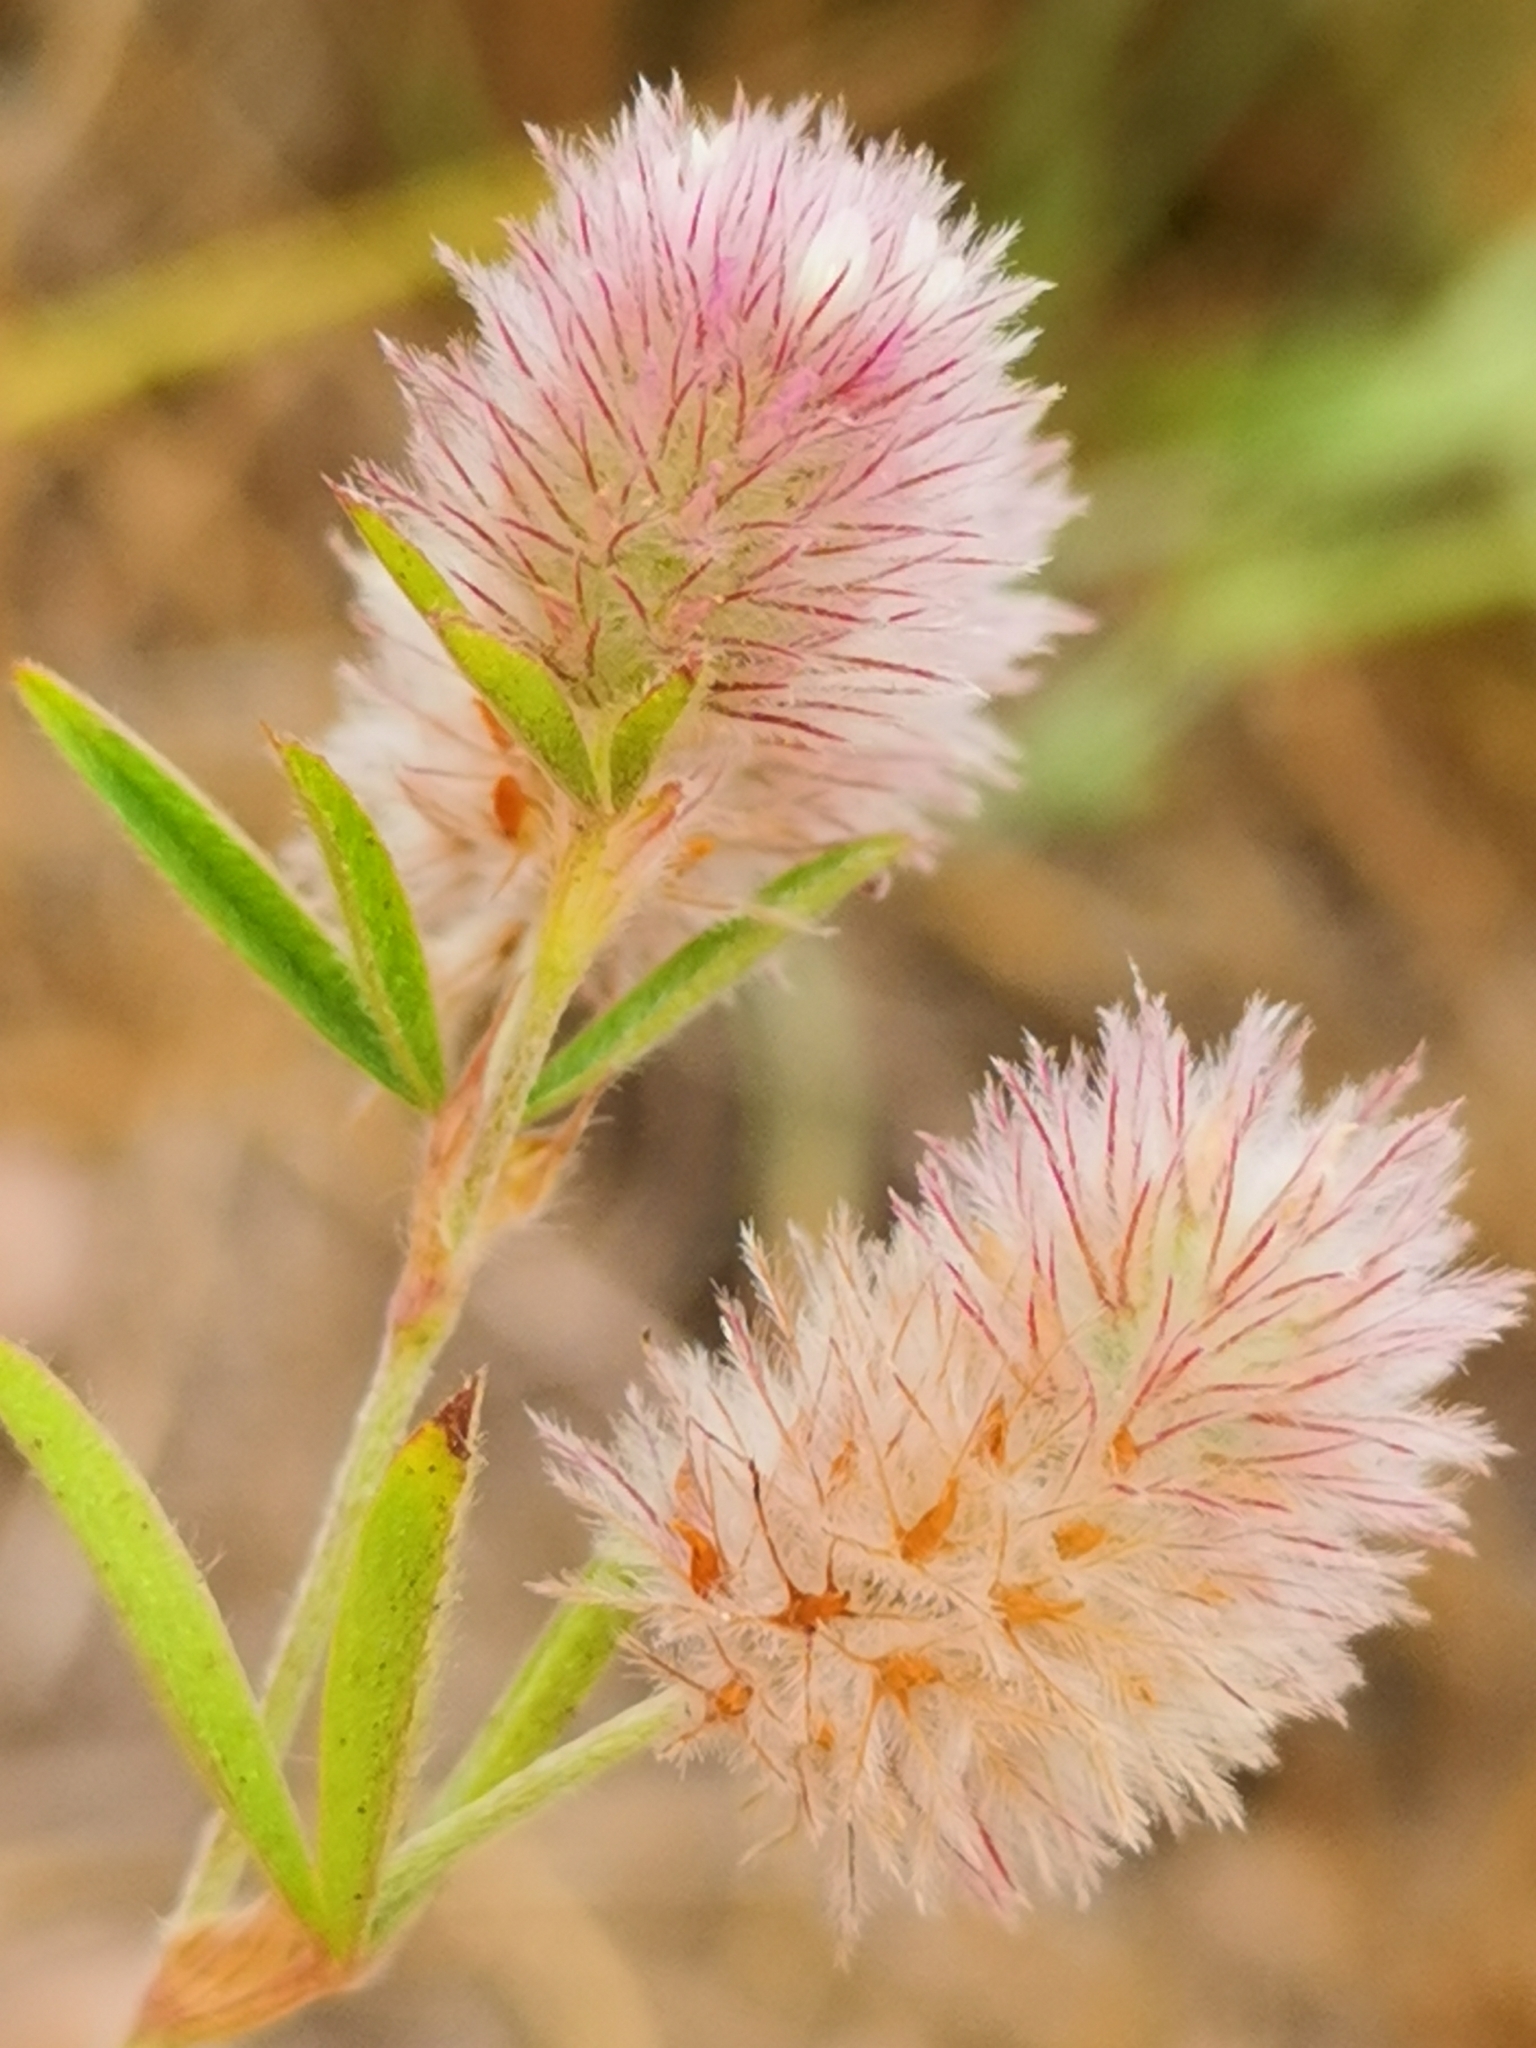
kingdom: Plantae
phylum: Tracheophyta
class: Magnoliopsida
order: Fabales
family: Fabaceae
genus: Trifolium
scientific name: Trifolium arvense
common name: Hare's-foot clover
